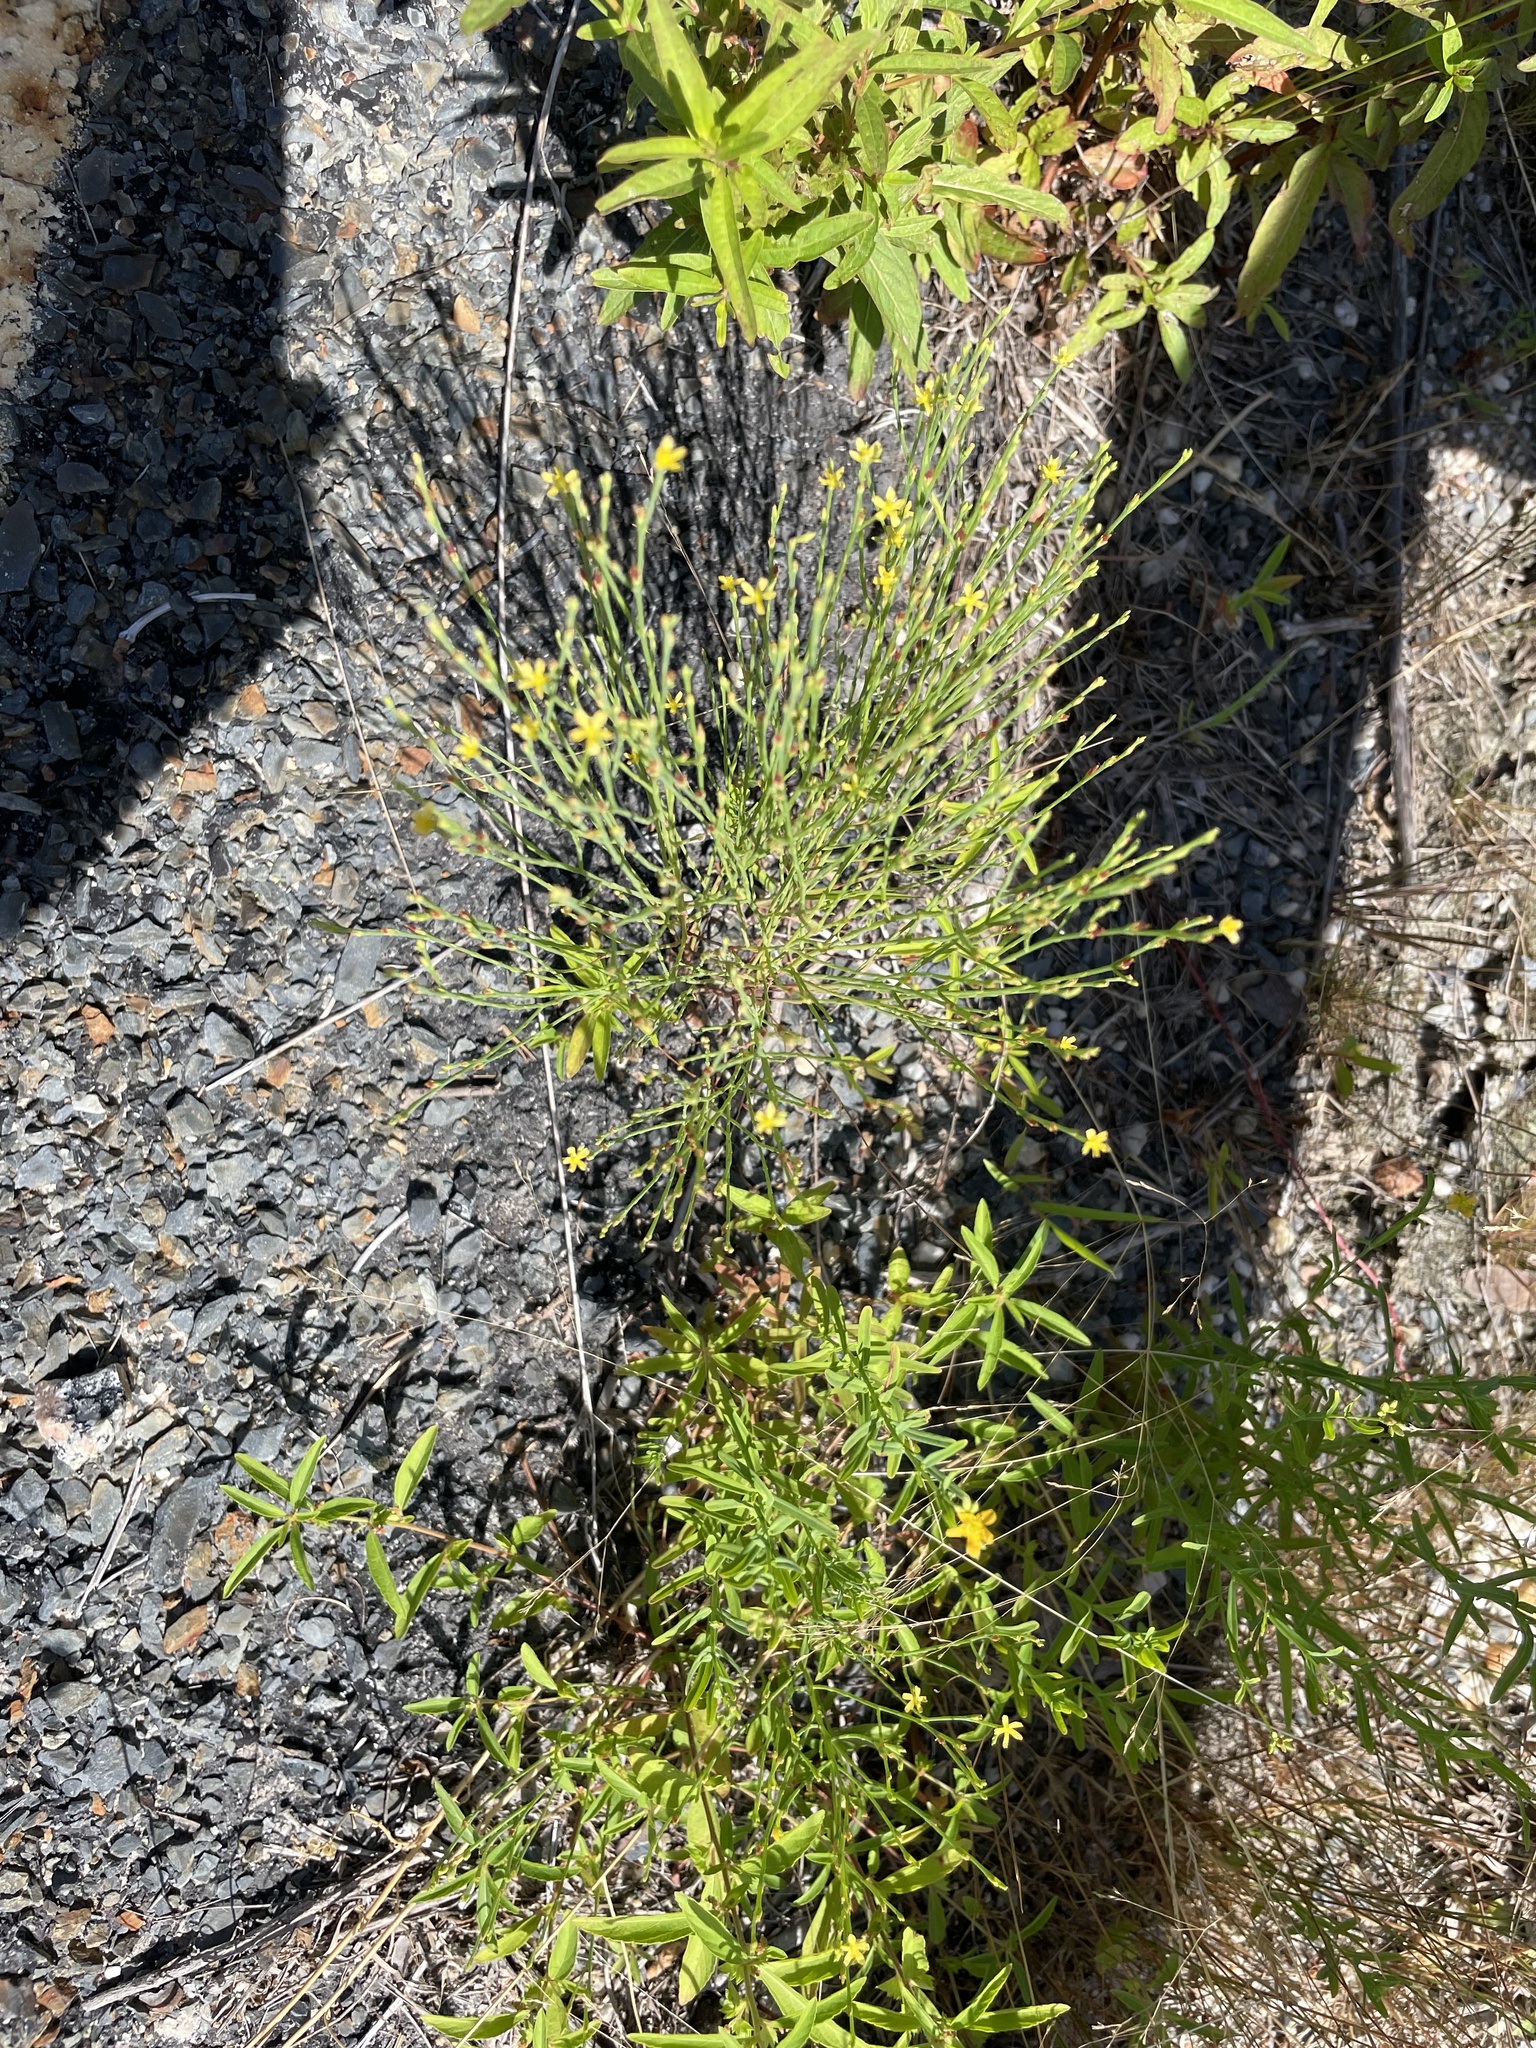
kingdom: Plantae
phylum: Tracheophyta
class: Magnoliopsida
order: Malpighiales
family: Hypericaceae
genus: Hypericum
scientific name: Hypericum gentianoides
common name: Gentian-leaved st. john's-wort
